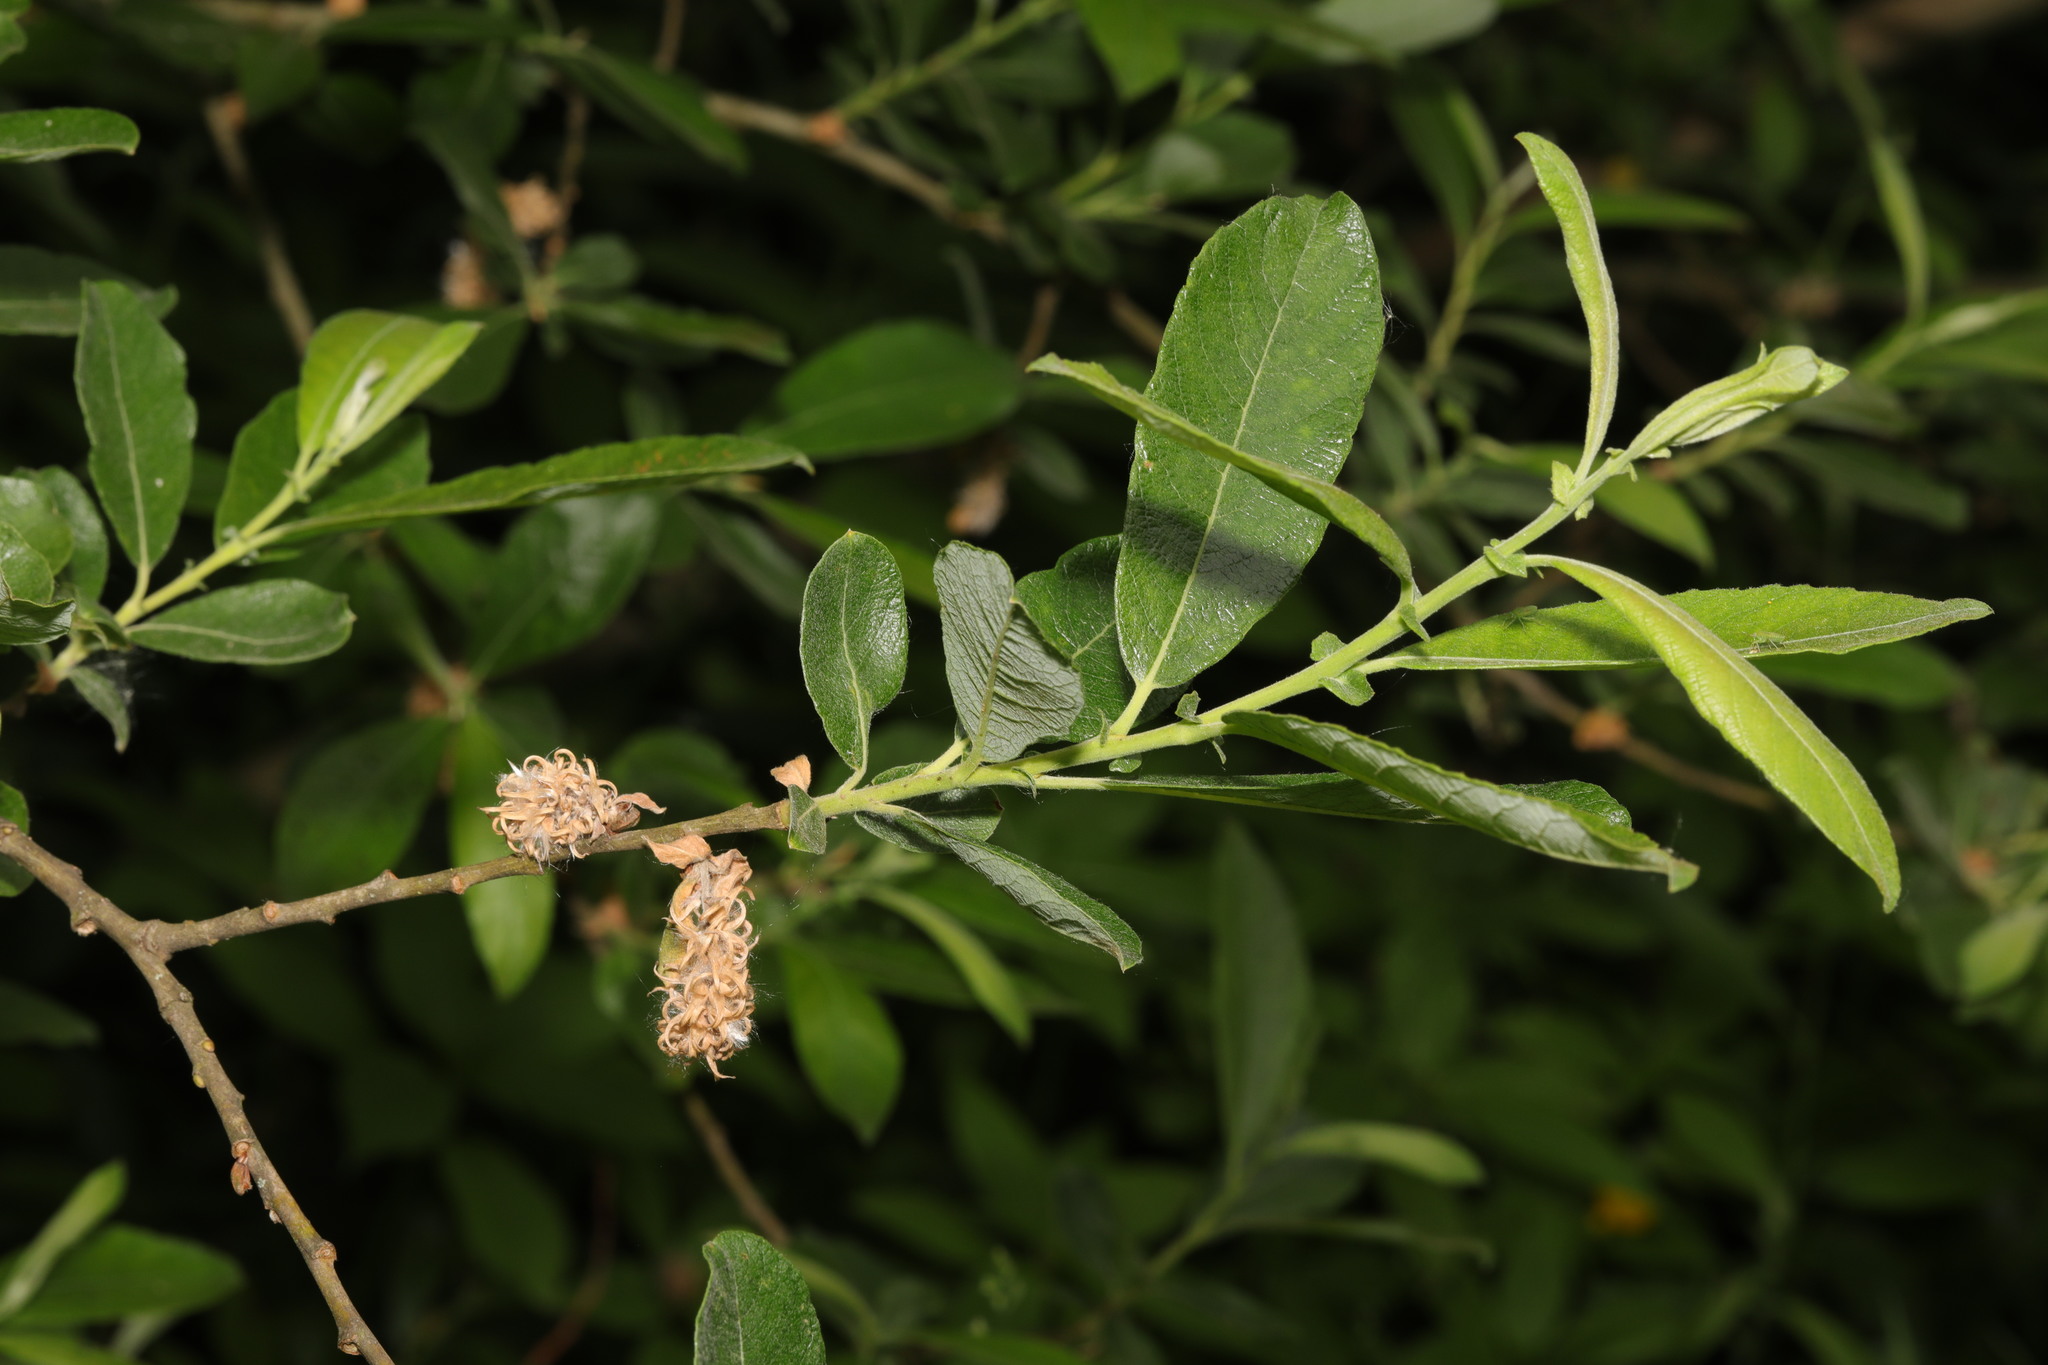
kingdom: Plantae
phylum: Tracheophyta
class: Magnoliopsida
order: Malpighiales
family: Salicaceae
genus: Salix
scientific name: Salix cinerea
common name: Common sallow
